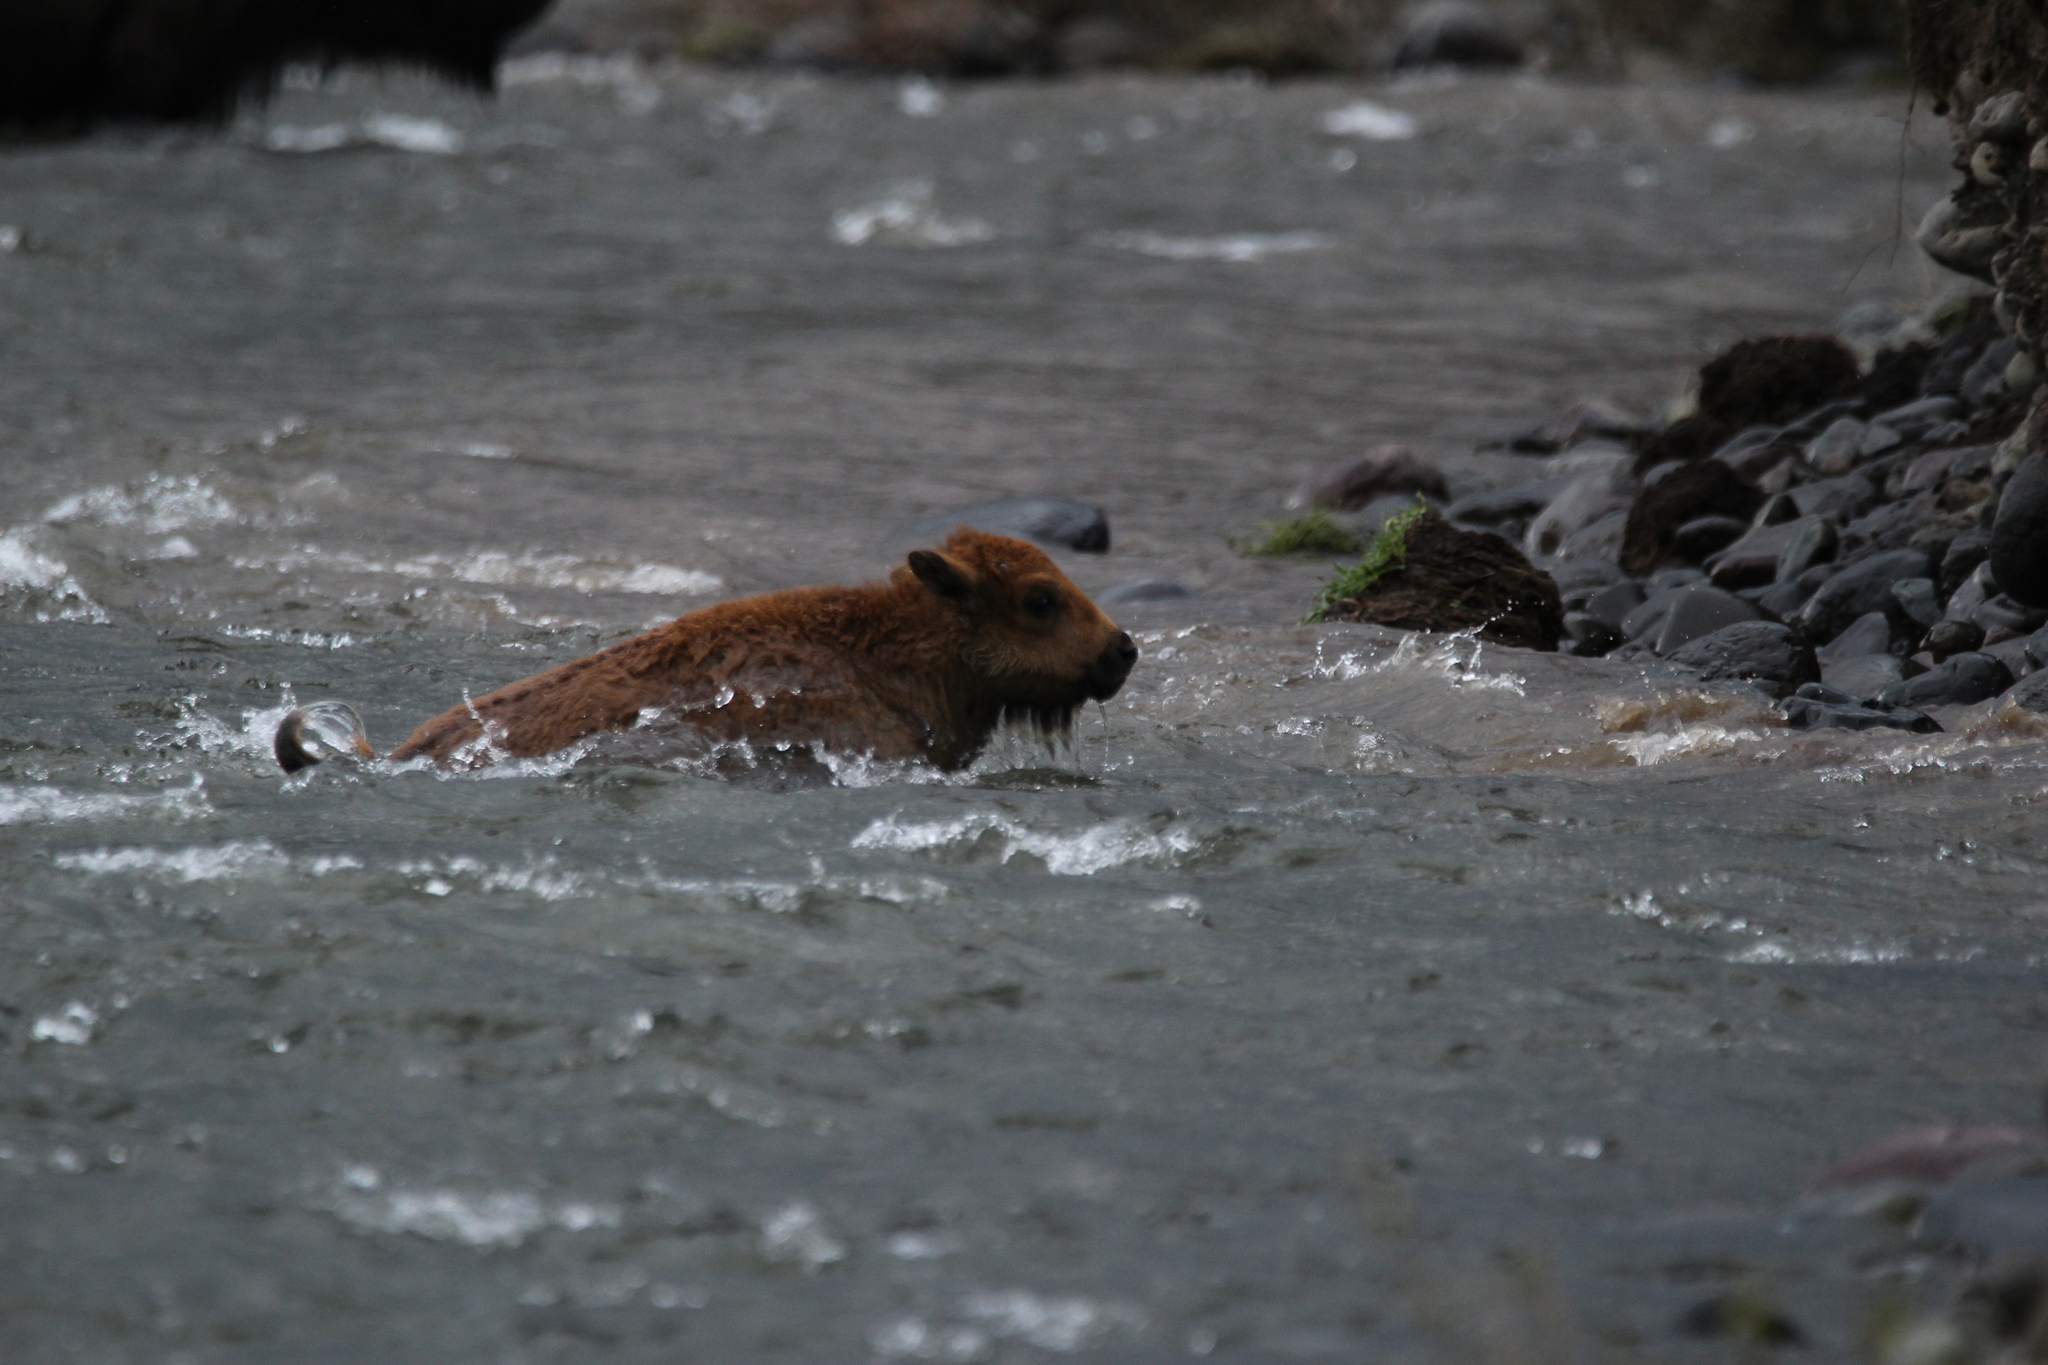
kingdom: Animalia
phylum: Chordata
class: Mammalia
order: Artiodactyla
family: Bovidae
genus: Bison
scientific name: Bison bison
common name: American bison
